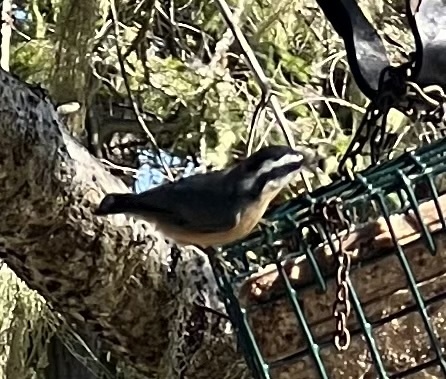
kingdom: Animalia
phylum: Chordata
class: Aves
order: Passeriformes
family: Sittidae
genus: Sitta
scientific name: Sitta canadensis
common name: Red-breasted nuthatch
